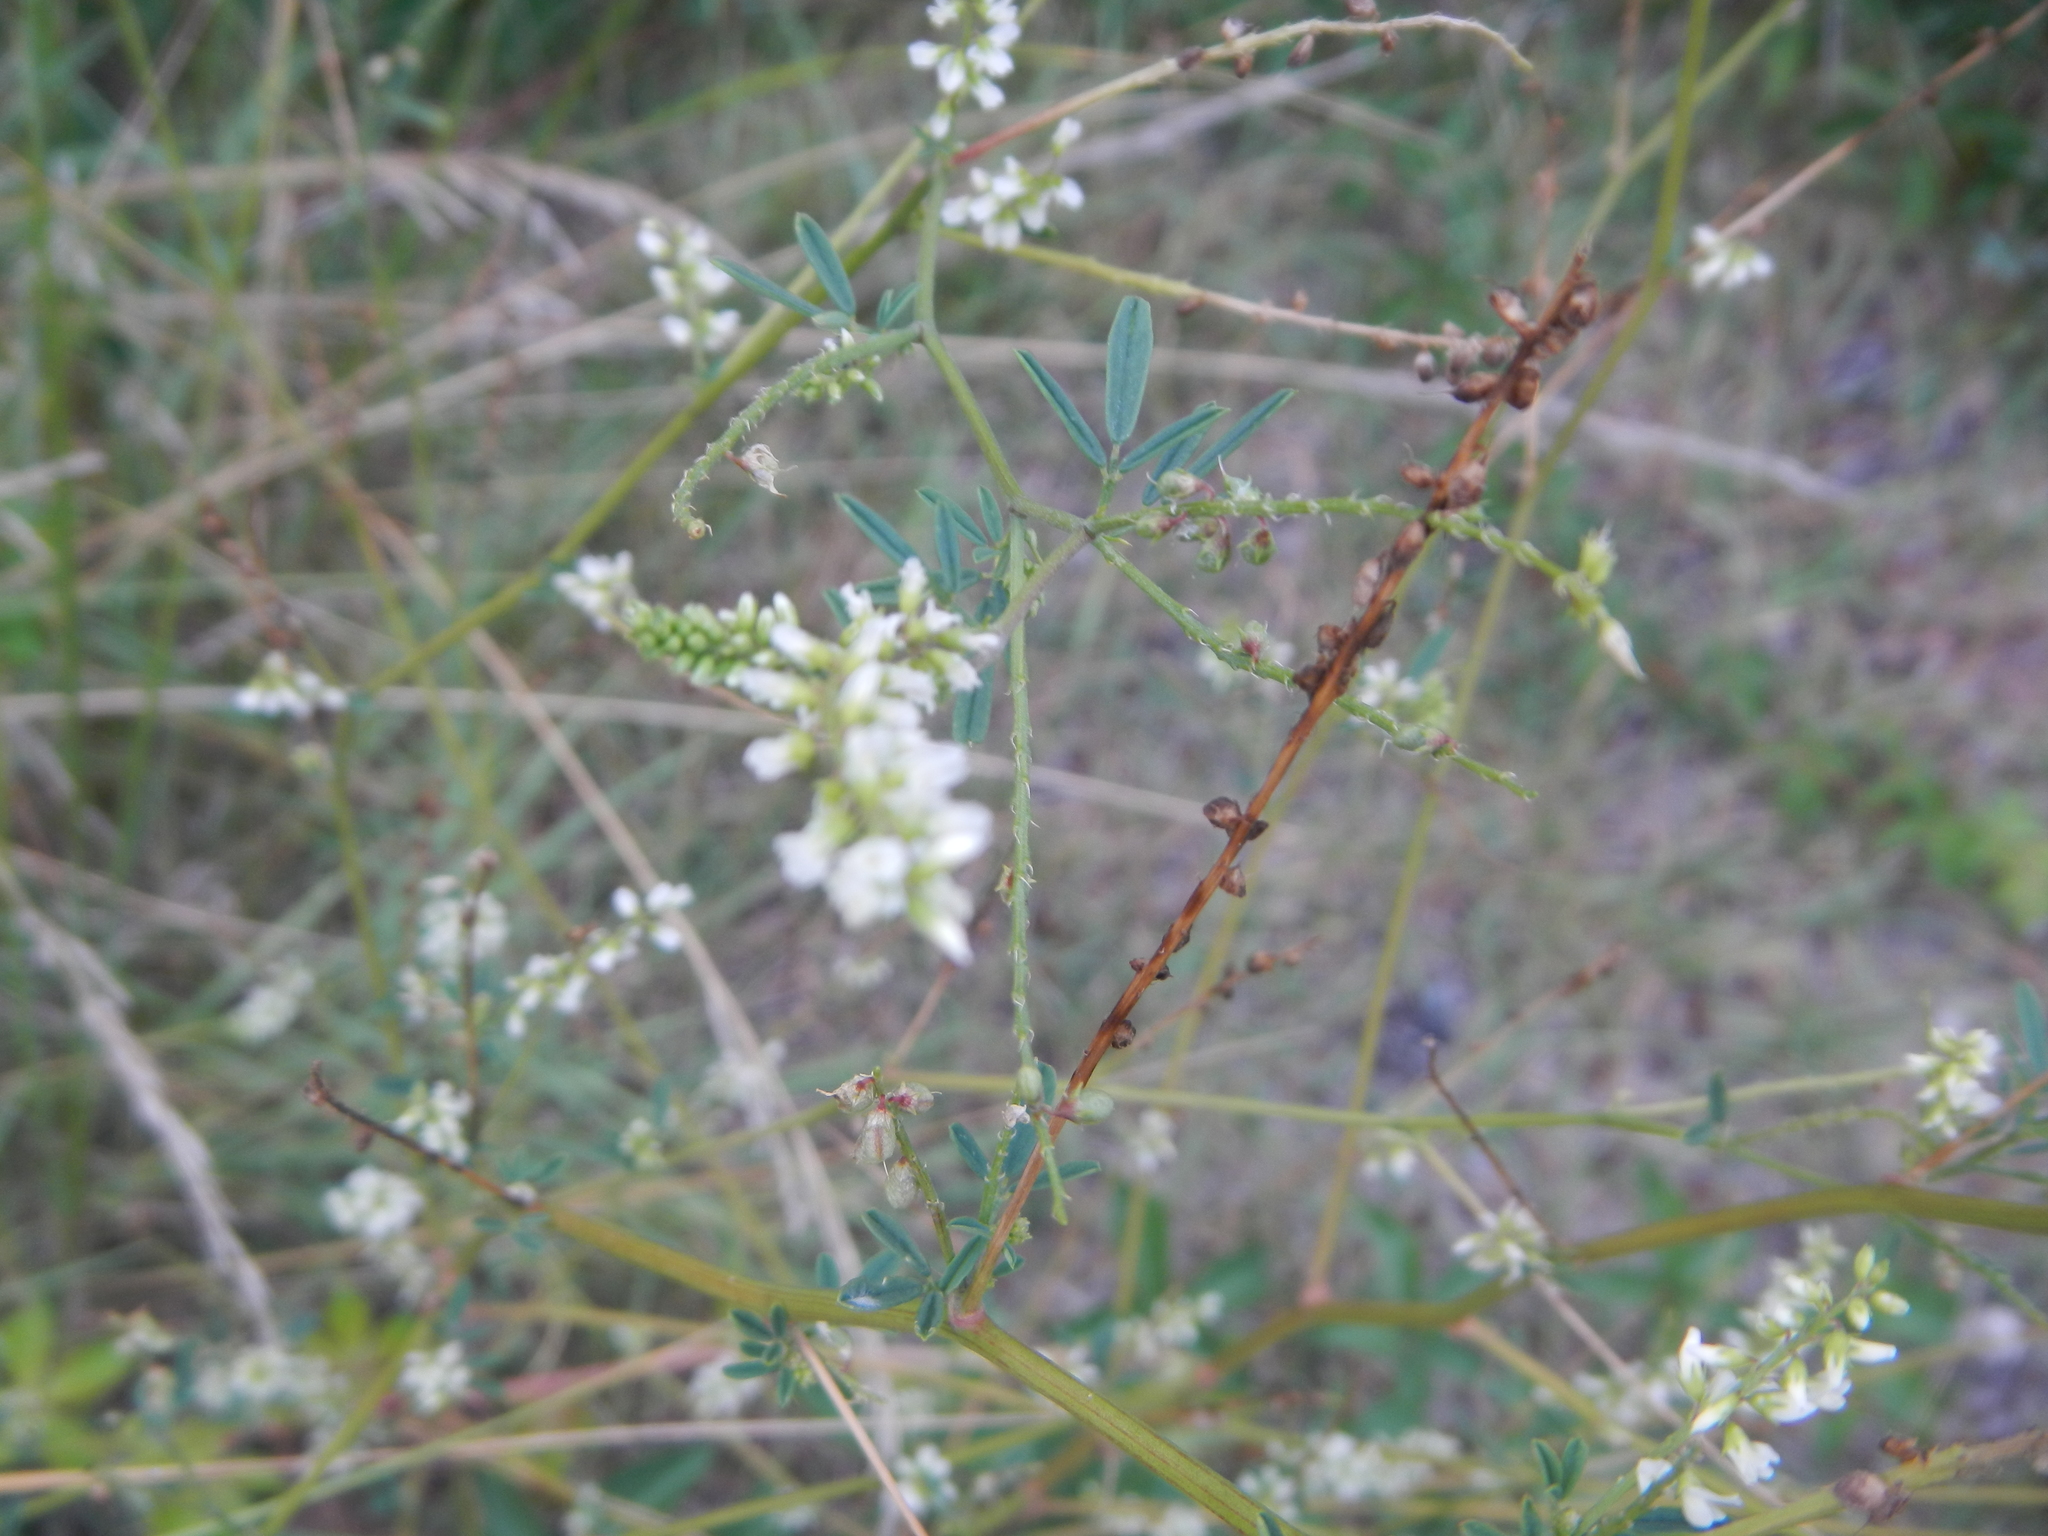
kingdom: Plantae
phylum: Tracheophyta
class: Magnoliopsida
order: Fabales
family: Fabaceae
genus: Melilotus
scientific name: Melilotus albus
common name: White melilot
